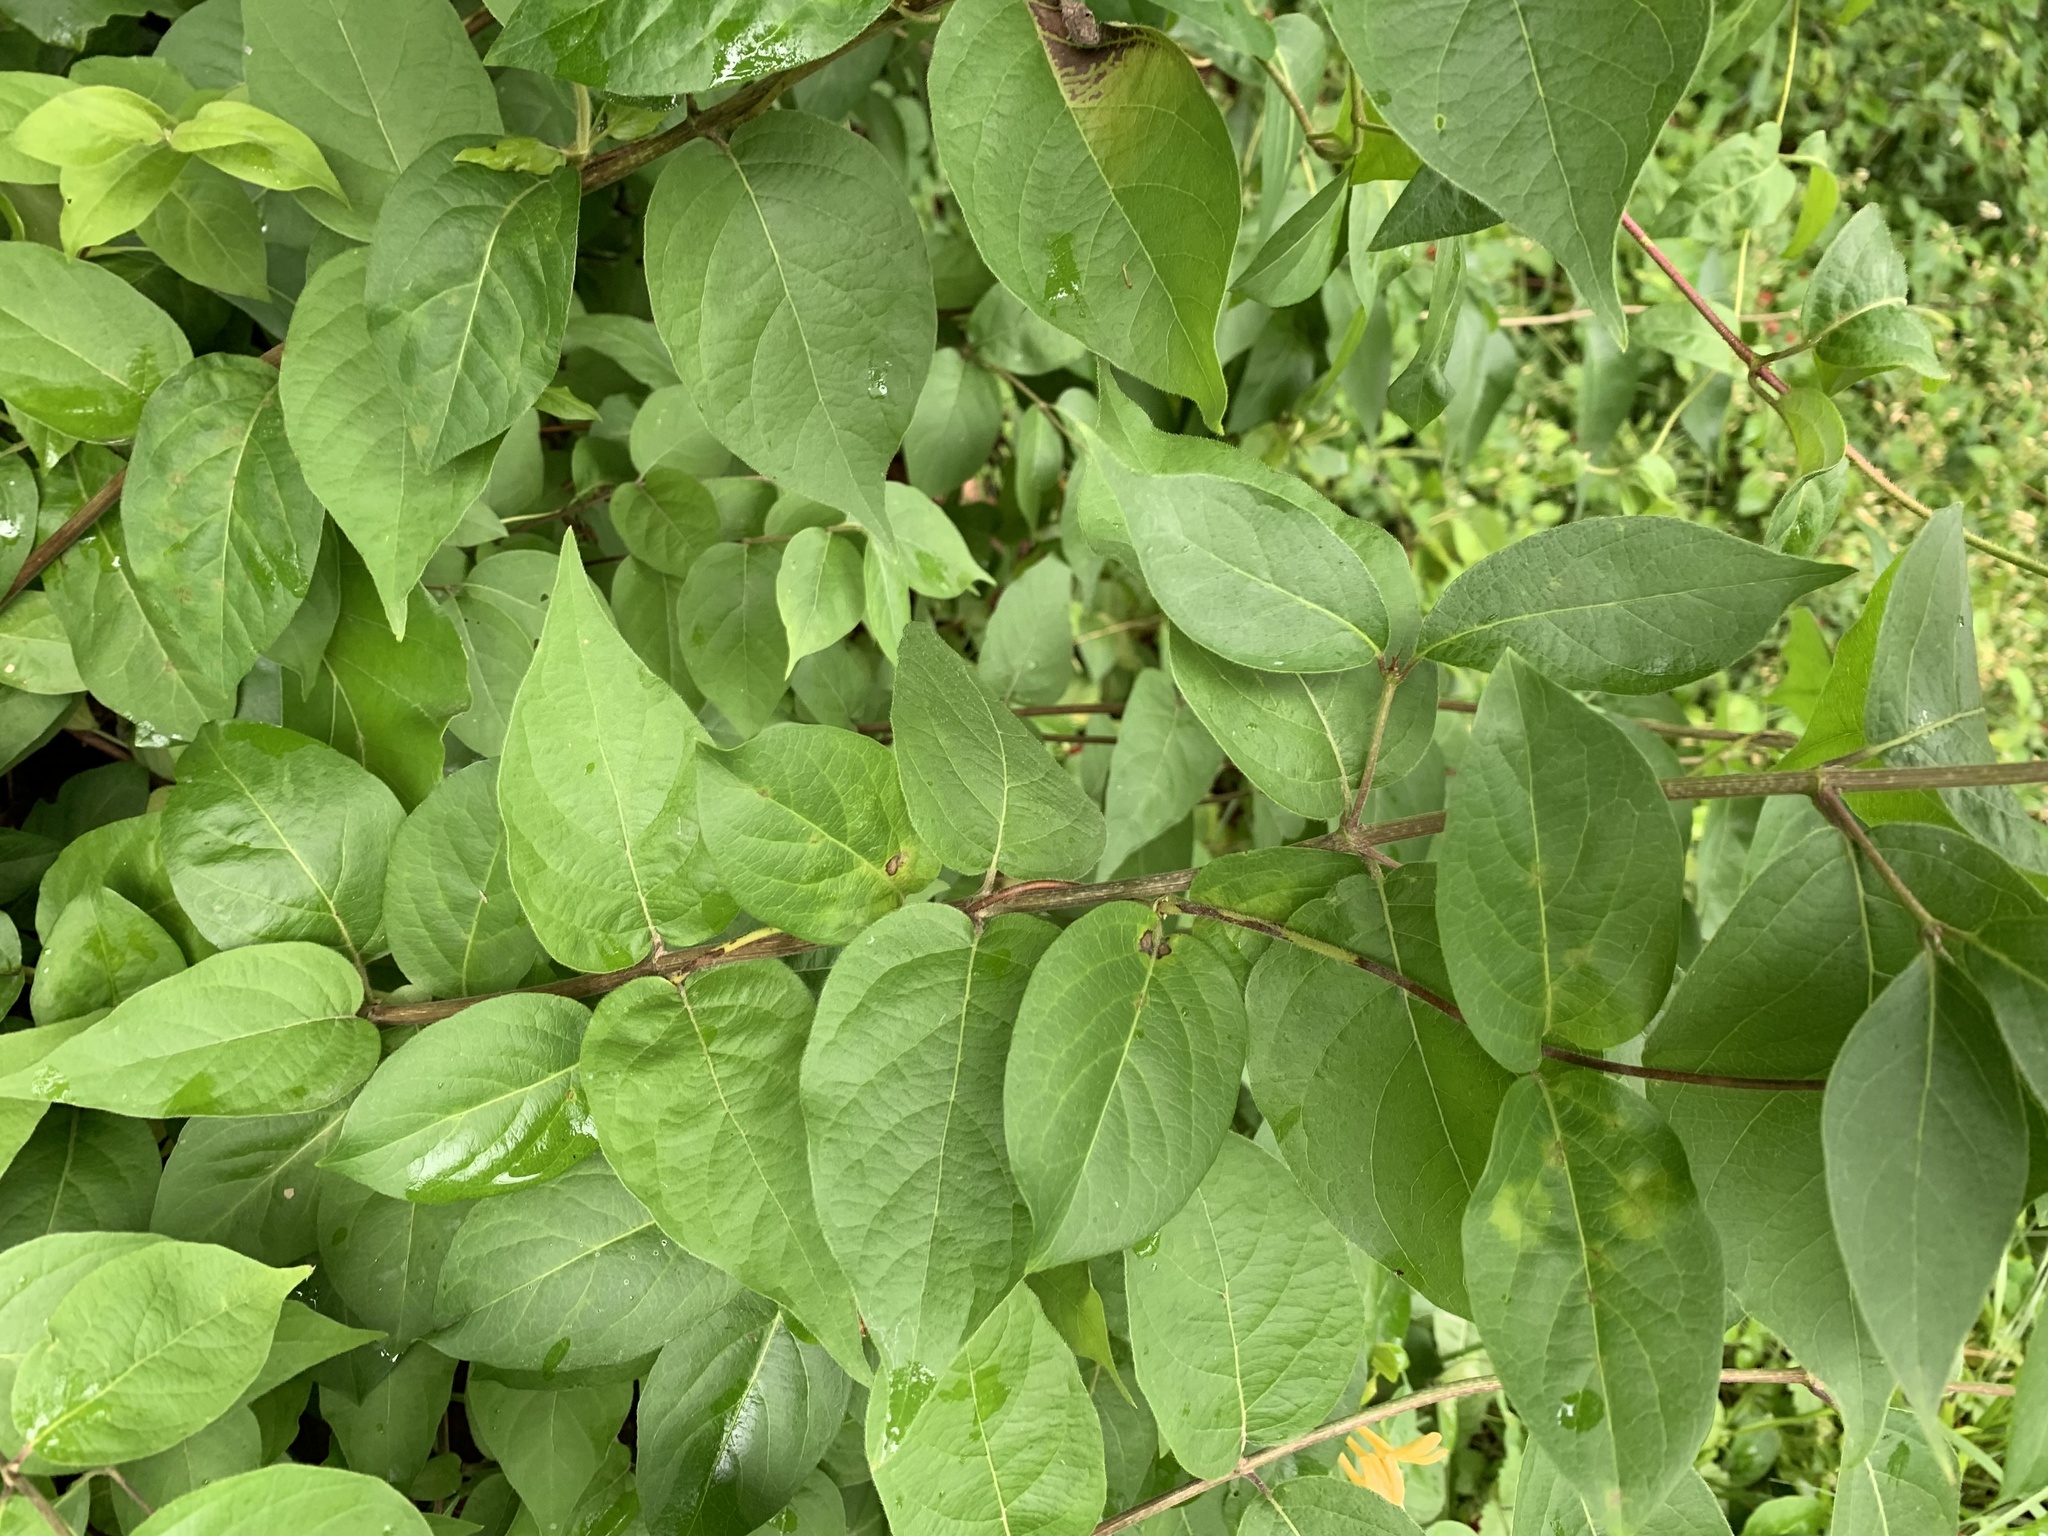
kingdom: Plantae
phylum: Tracheophyta
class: Magnoliopsida
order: Dipsacales
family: Caprifoliaceae
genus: Lonicera
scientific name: Lonicera japonica
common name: Japanese honeysuckle
